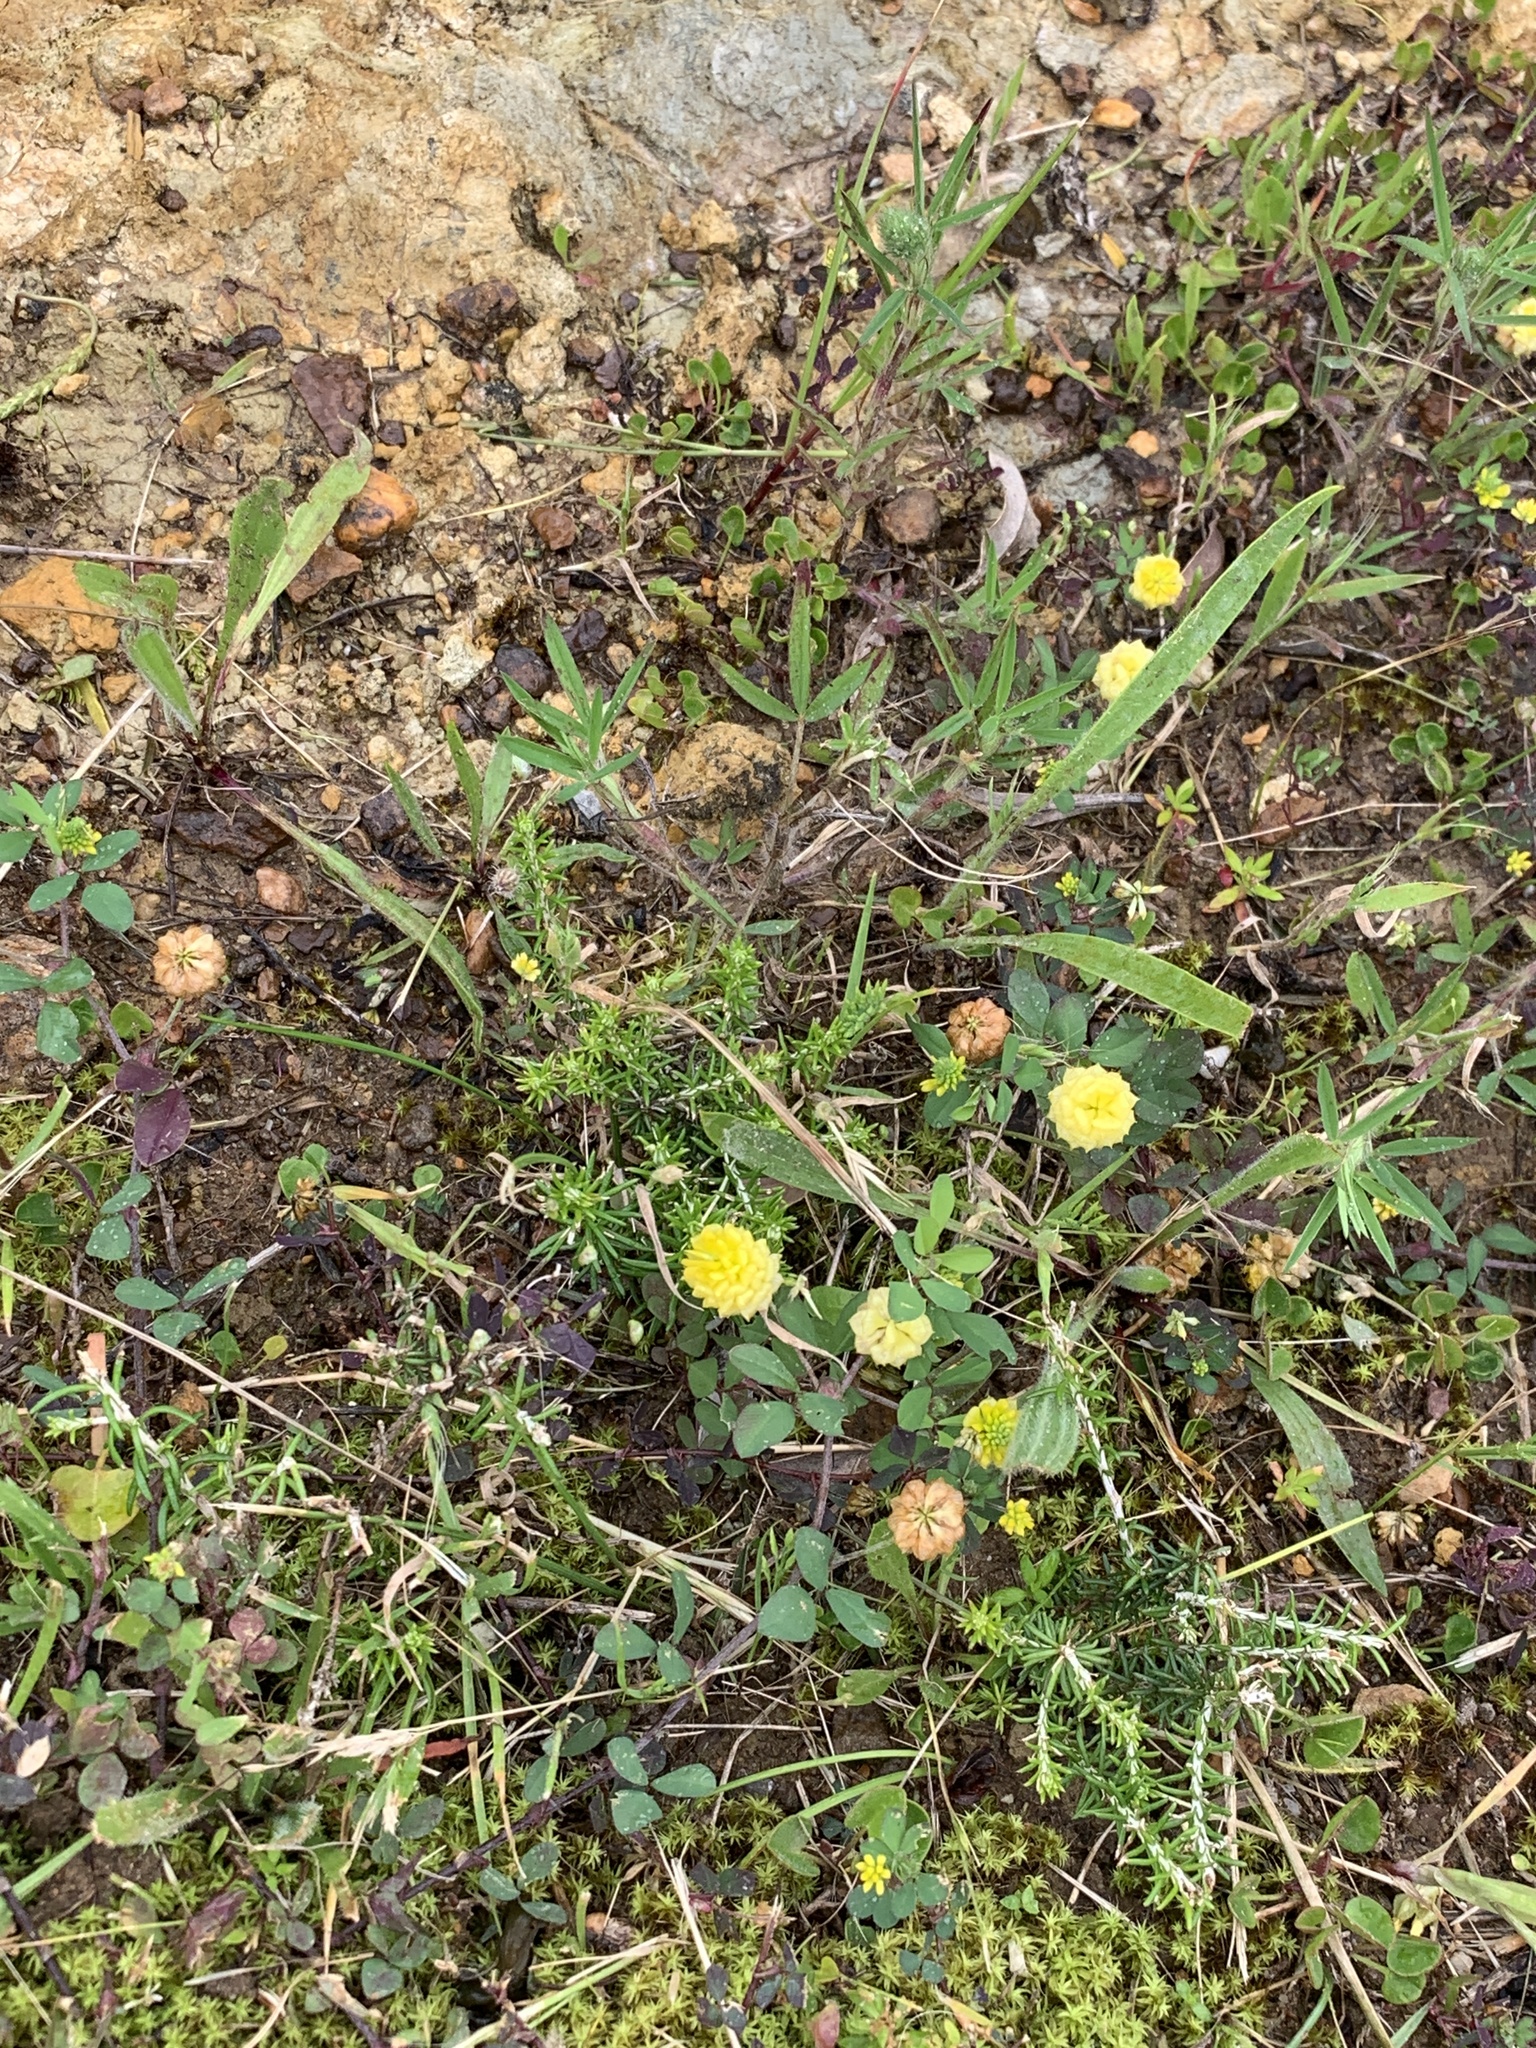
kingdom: Plantae
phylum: Tracheophyta
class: Magnoliopsida
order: Fabales
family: Fabaceae
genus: Trifolium
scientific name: Trifolium campestre
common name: Field clover
